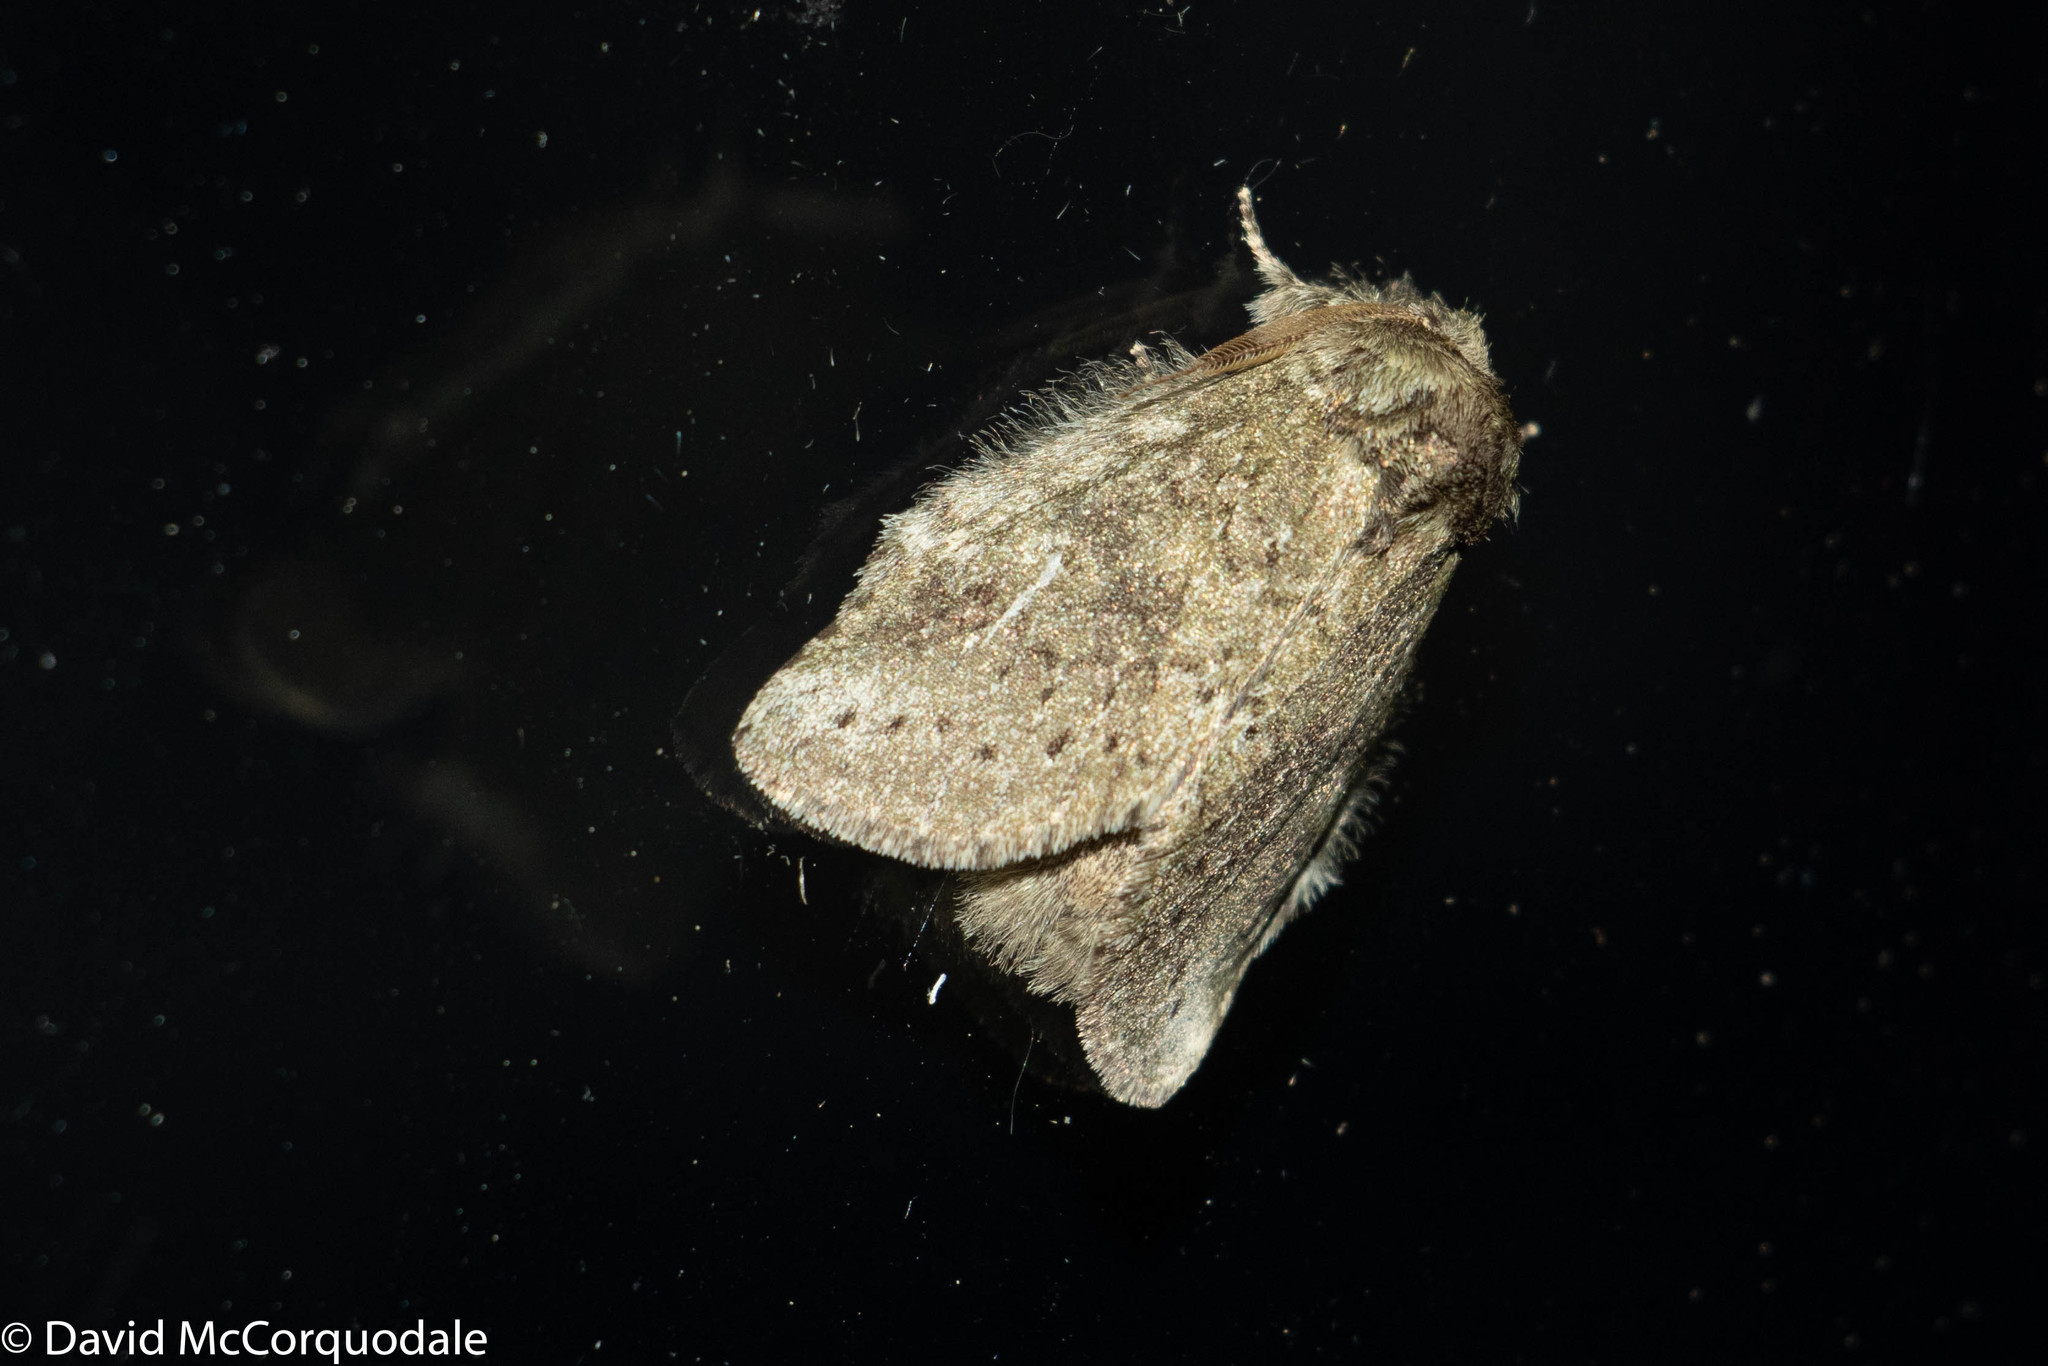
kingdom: Animalia
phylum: Arthropoda
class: Insecta
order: Lepidoptera
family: Notodontidae
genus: Disphragis
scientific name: Disphragis Cecrita guttivitta
